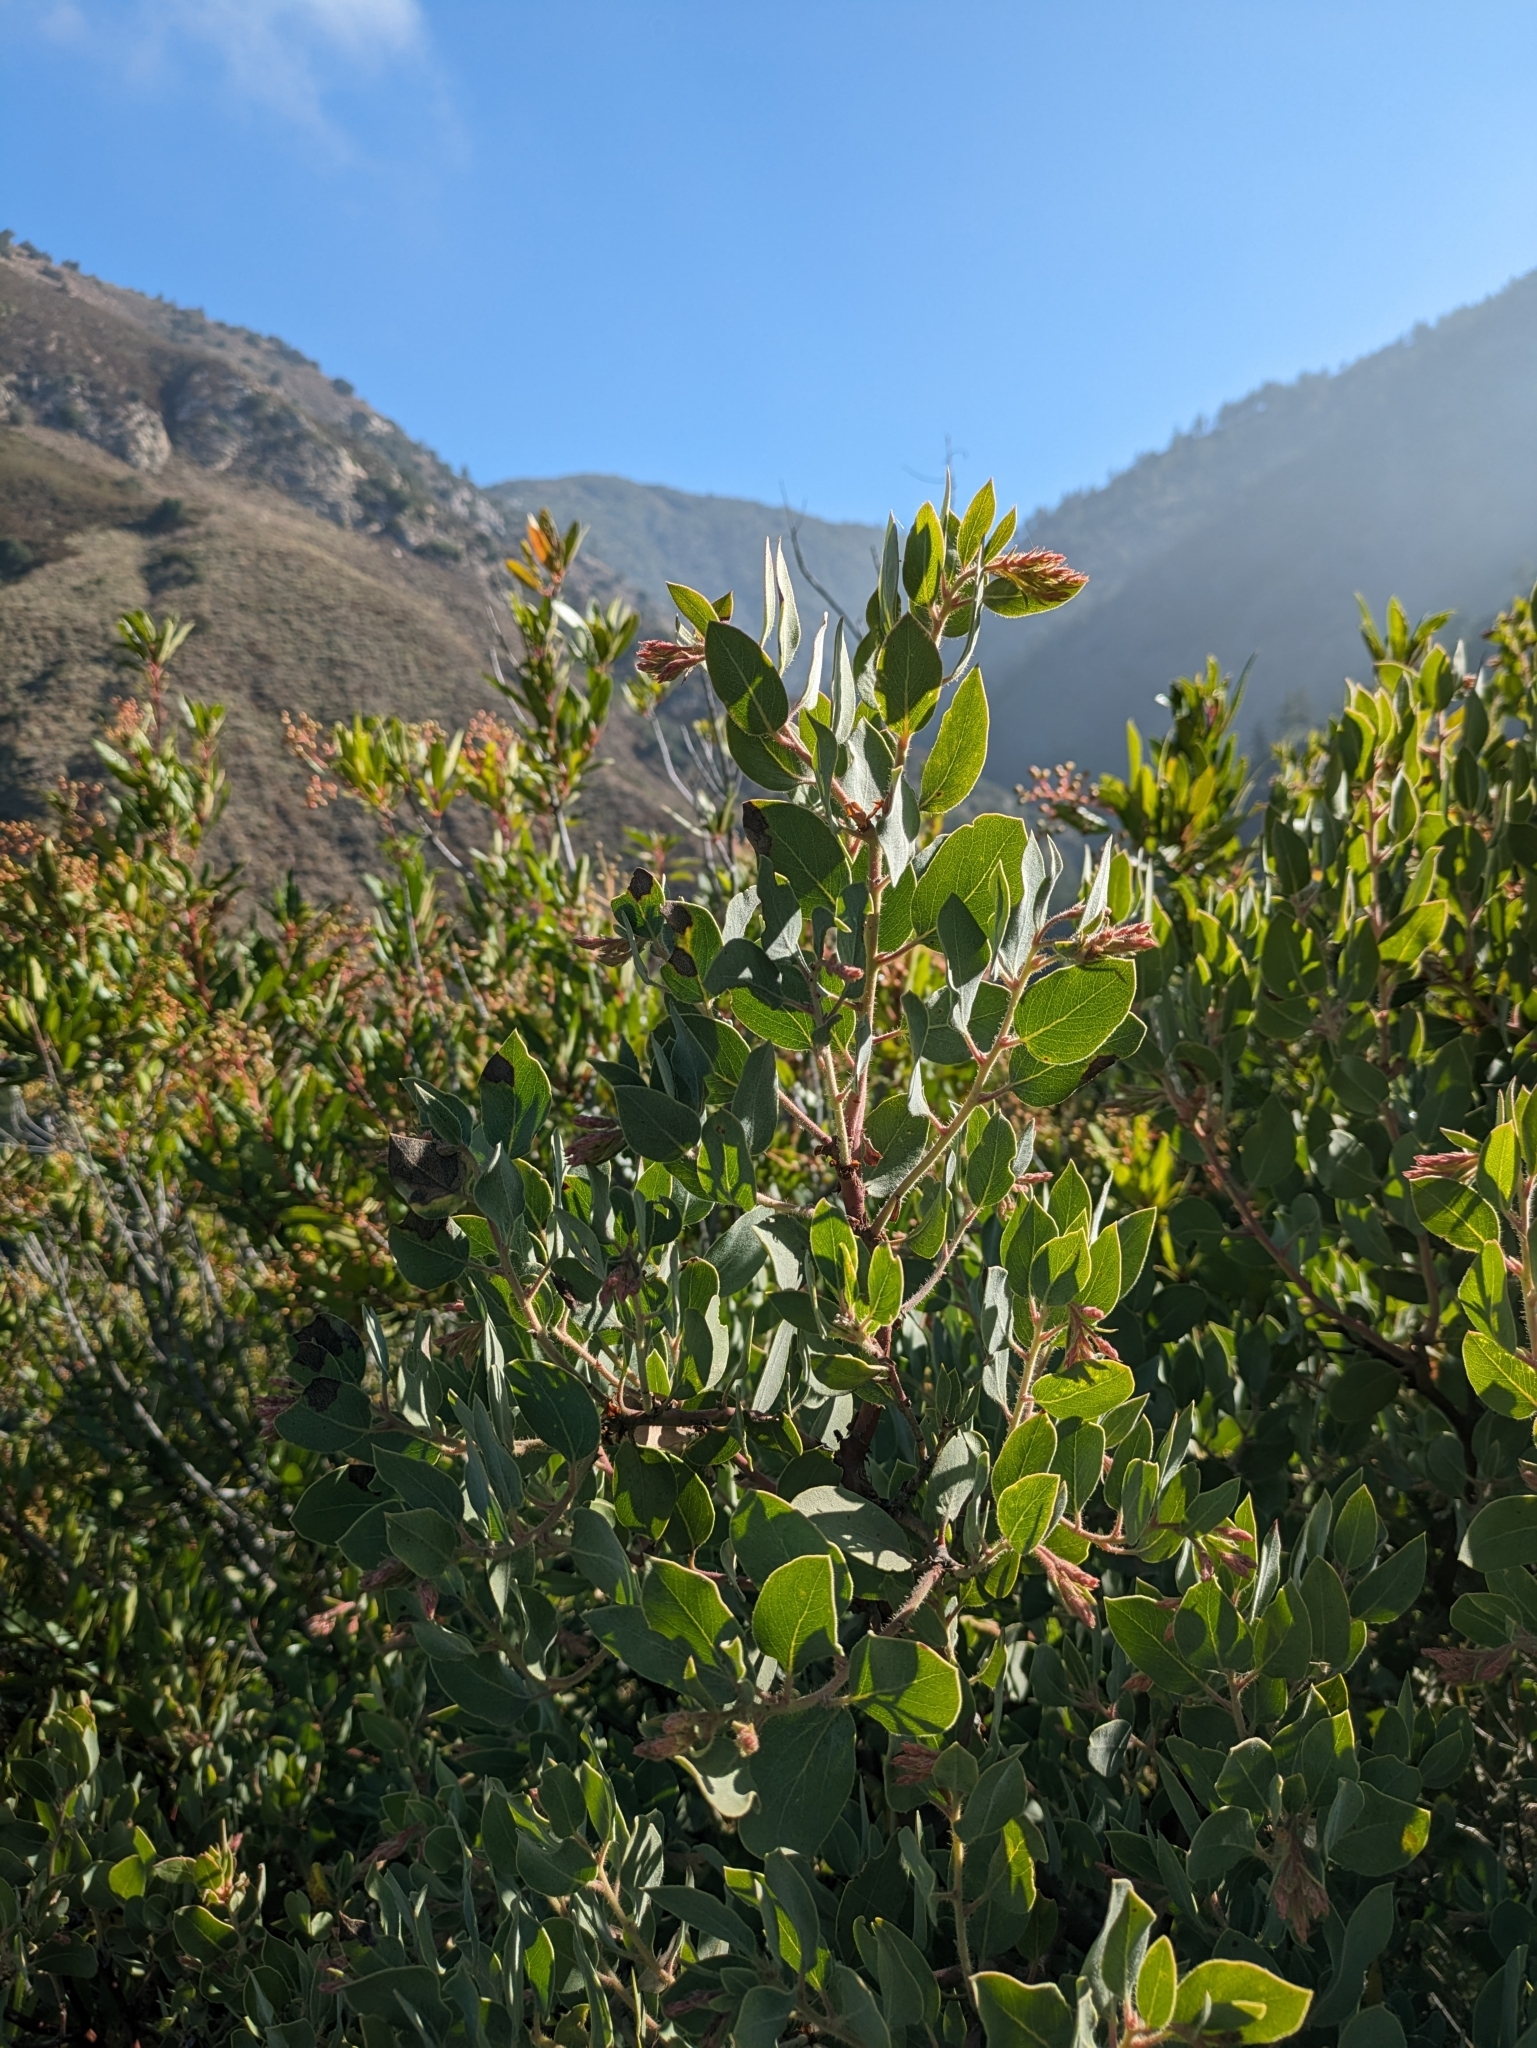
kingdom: Plantae
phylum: Tracheophyta
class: Magnoliopsida
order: Ericales
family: Ericaceae
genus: Arctostaphylos
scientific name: Arctostaphylos glandulosa
